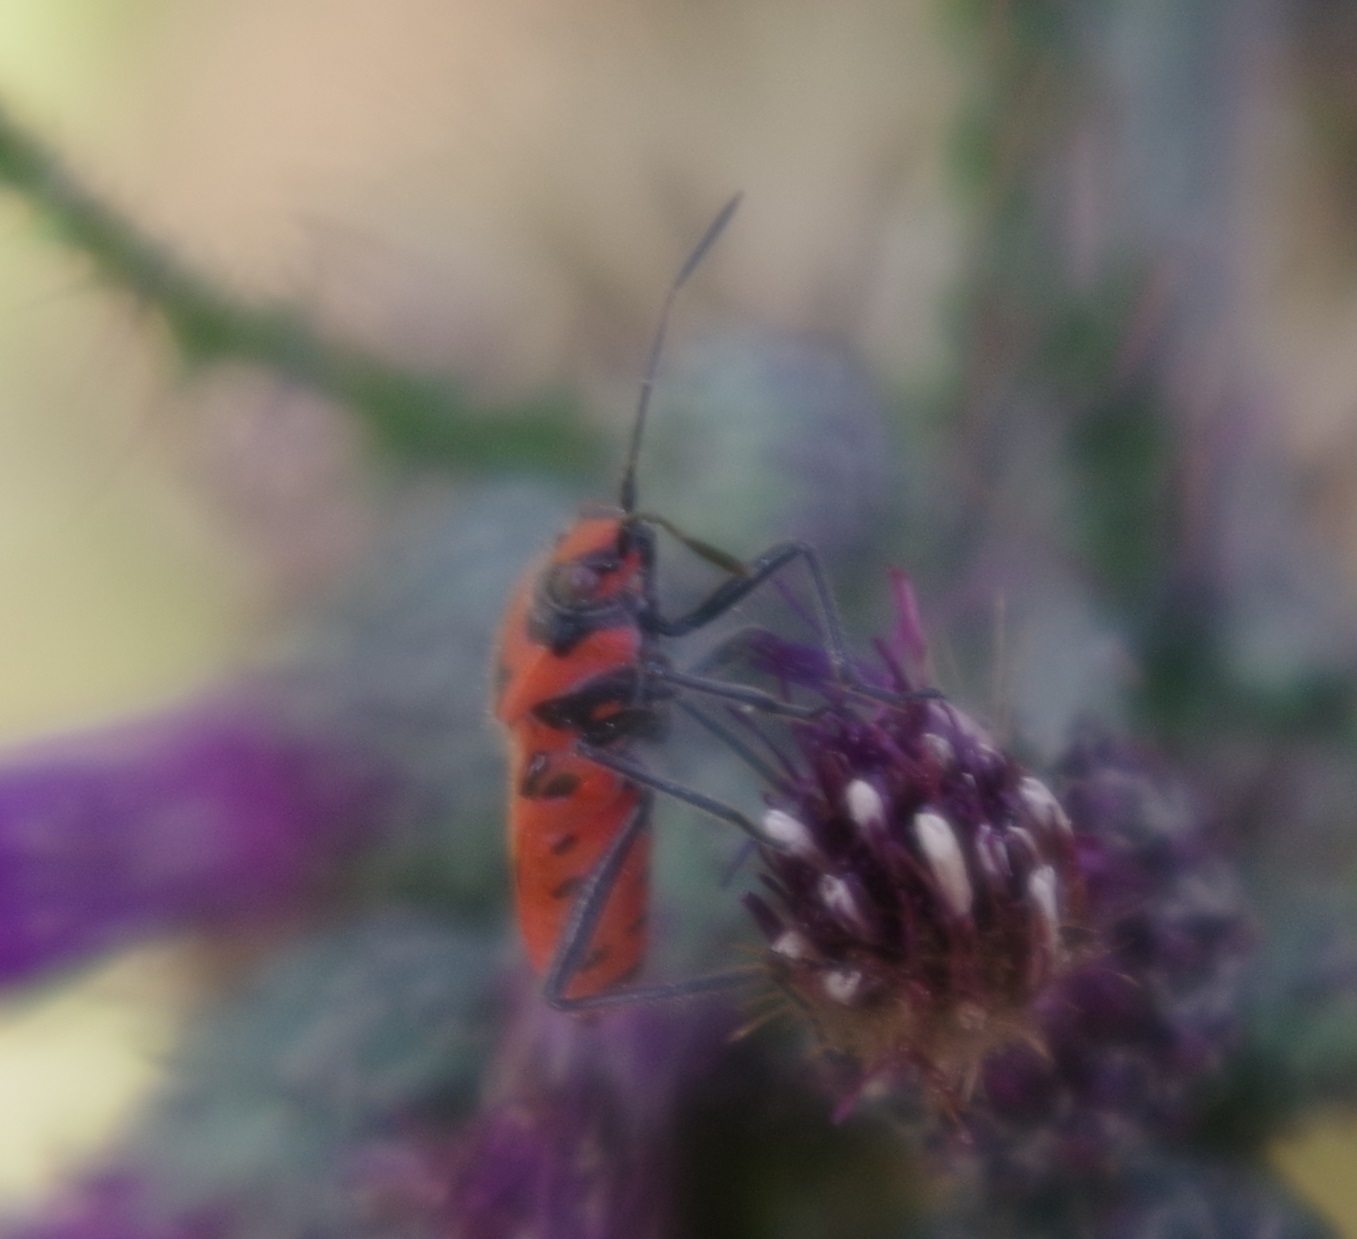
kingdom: Animalia
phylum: Arthropoda
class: Insecta
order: Hemiptera
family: Rhopalidae
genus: Corizus
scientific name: Corizus hyoscyami
